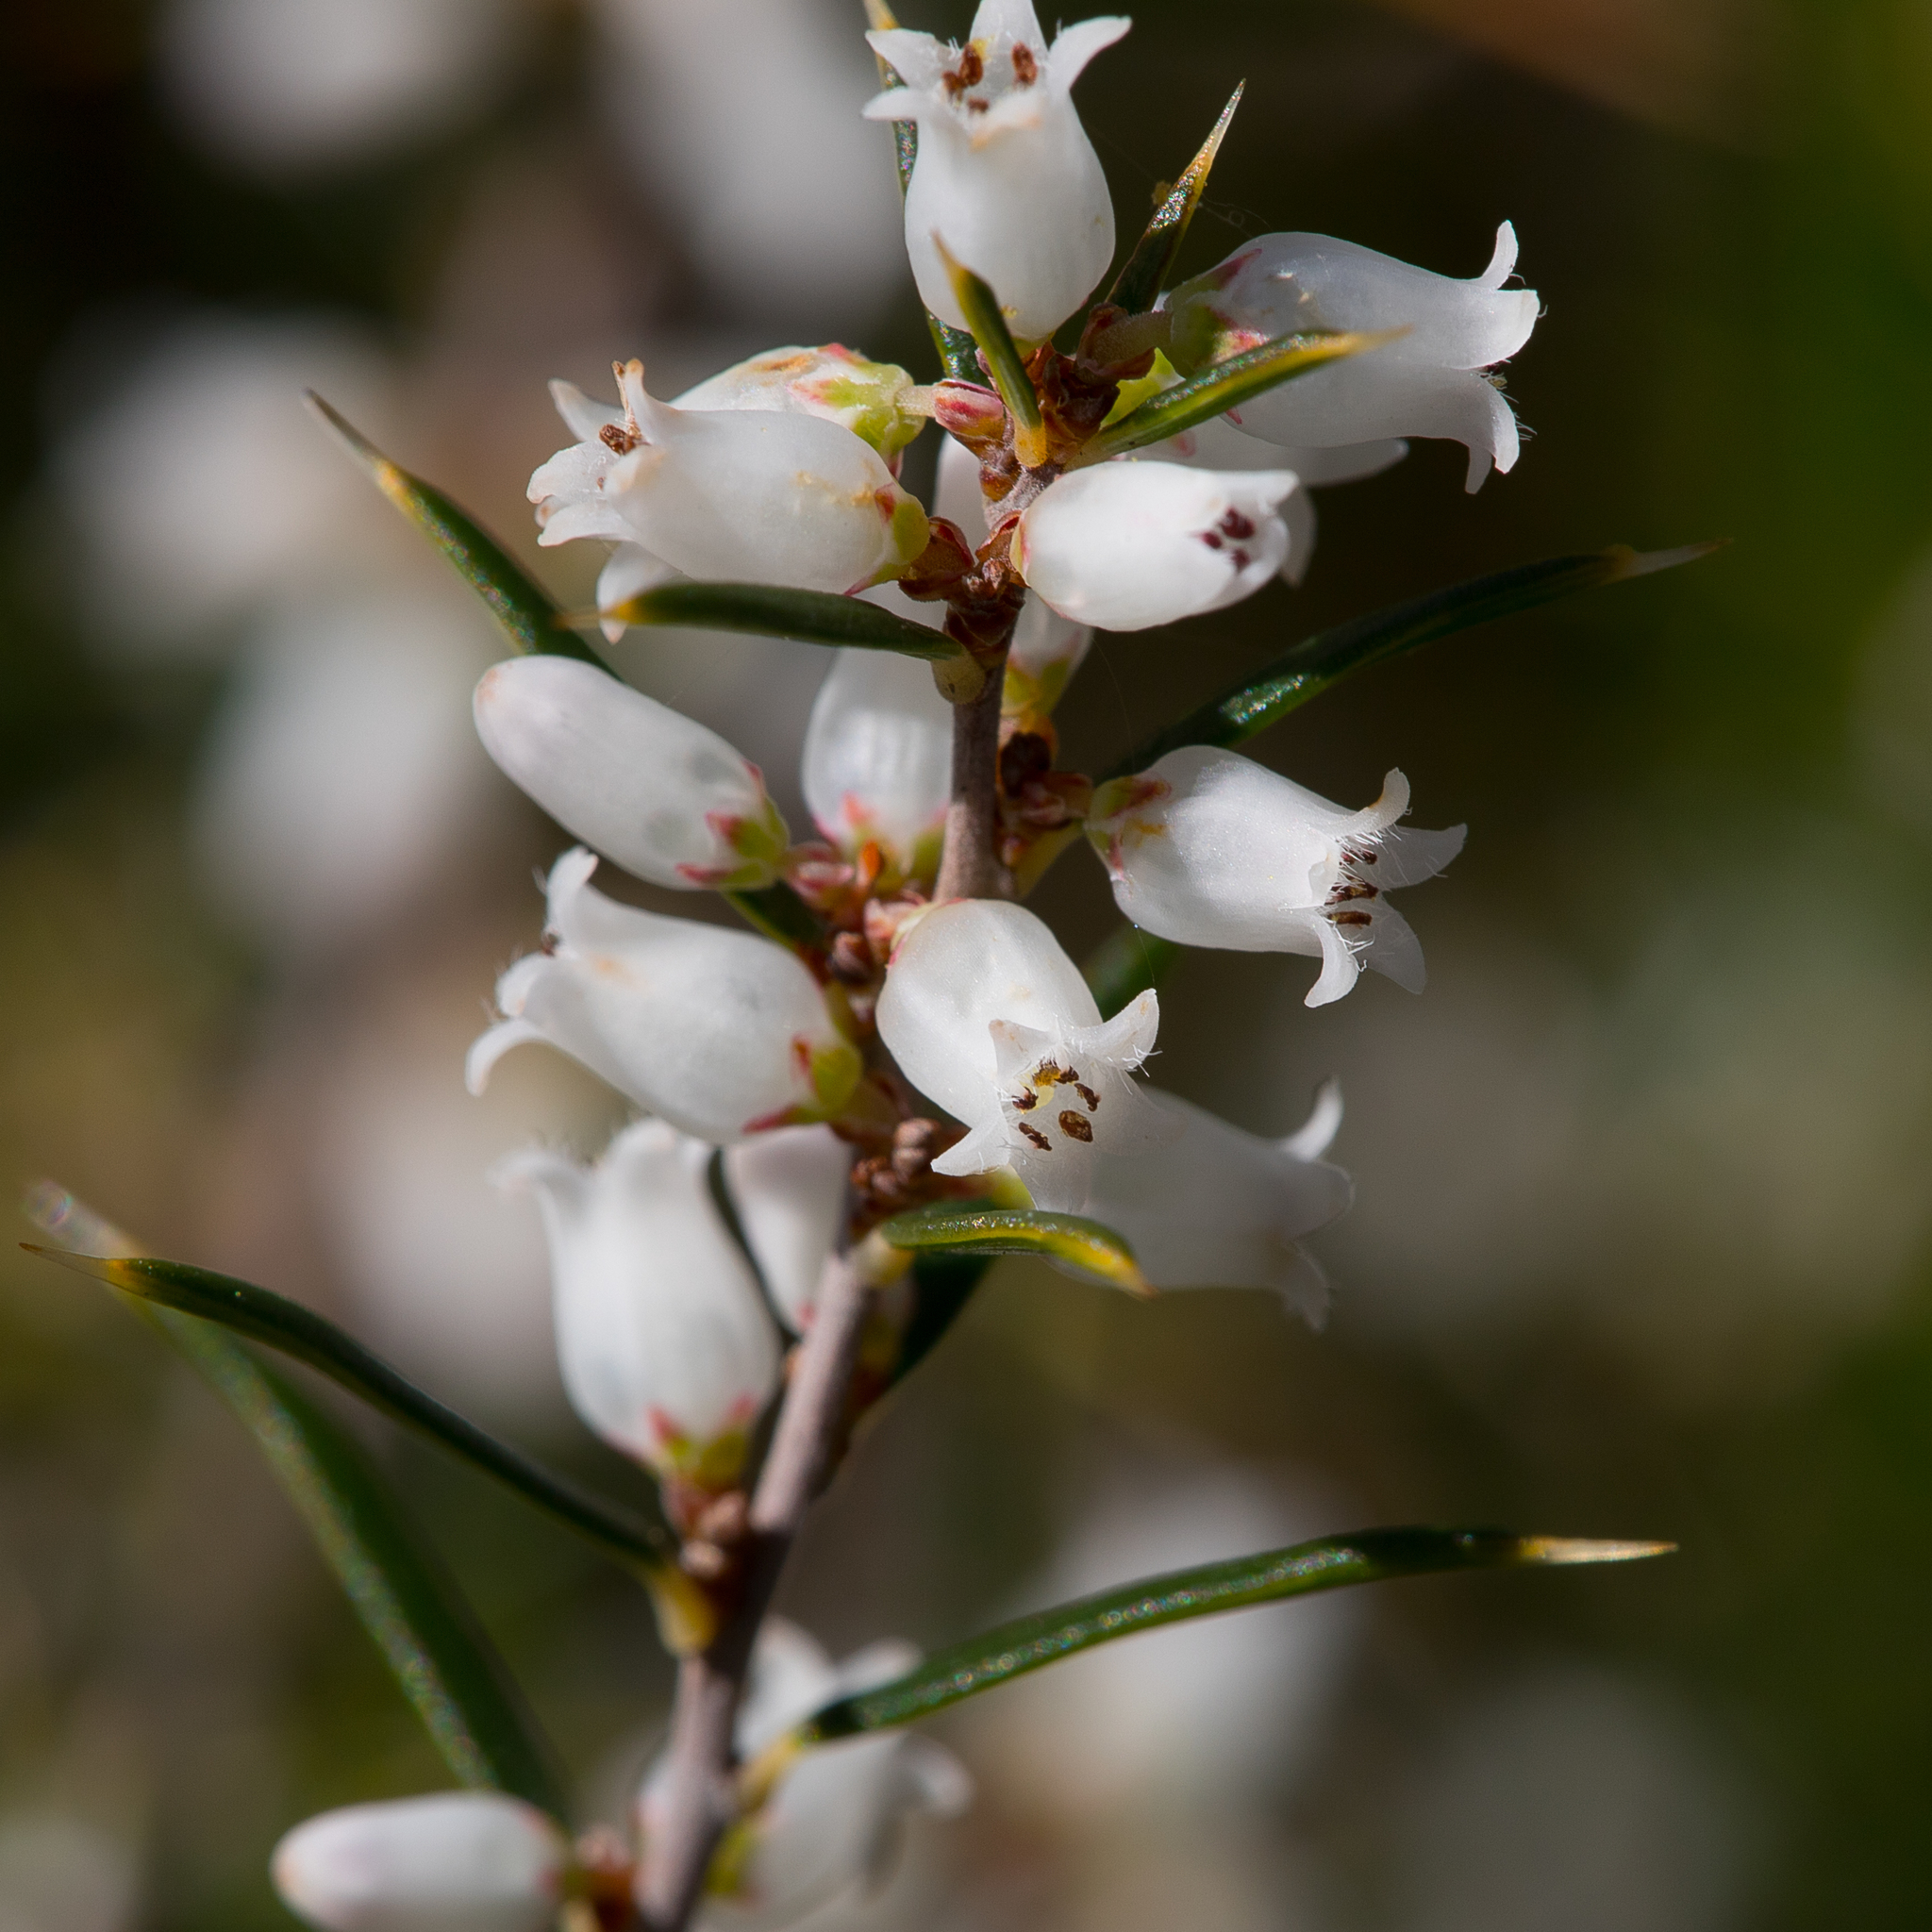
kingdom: Plantae
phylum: Tracheophyta
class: Magnoliopsida
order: Ericales
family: Ericaceae
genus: Lissanthe
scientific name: Lissanthe strigosa
